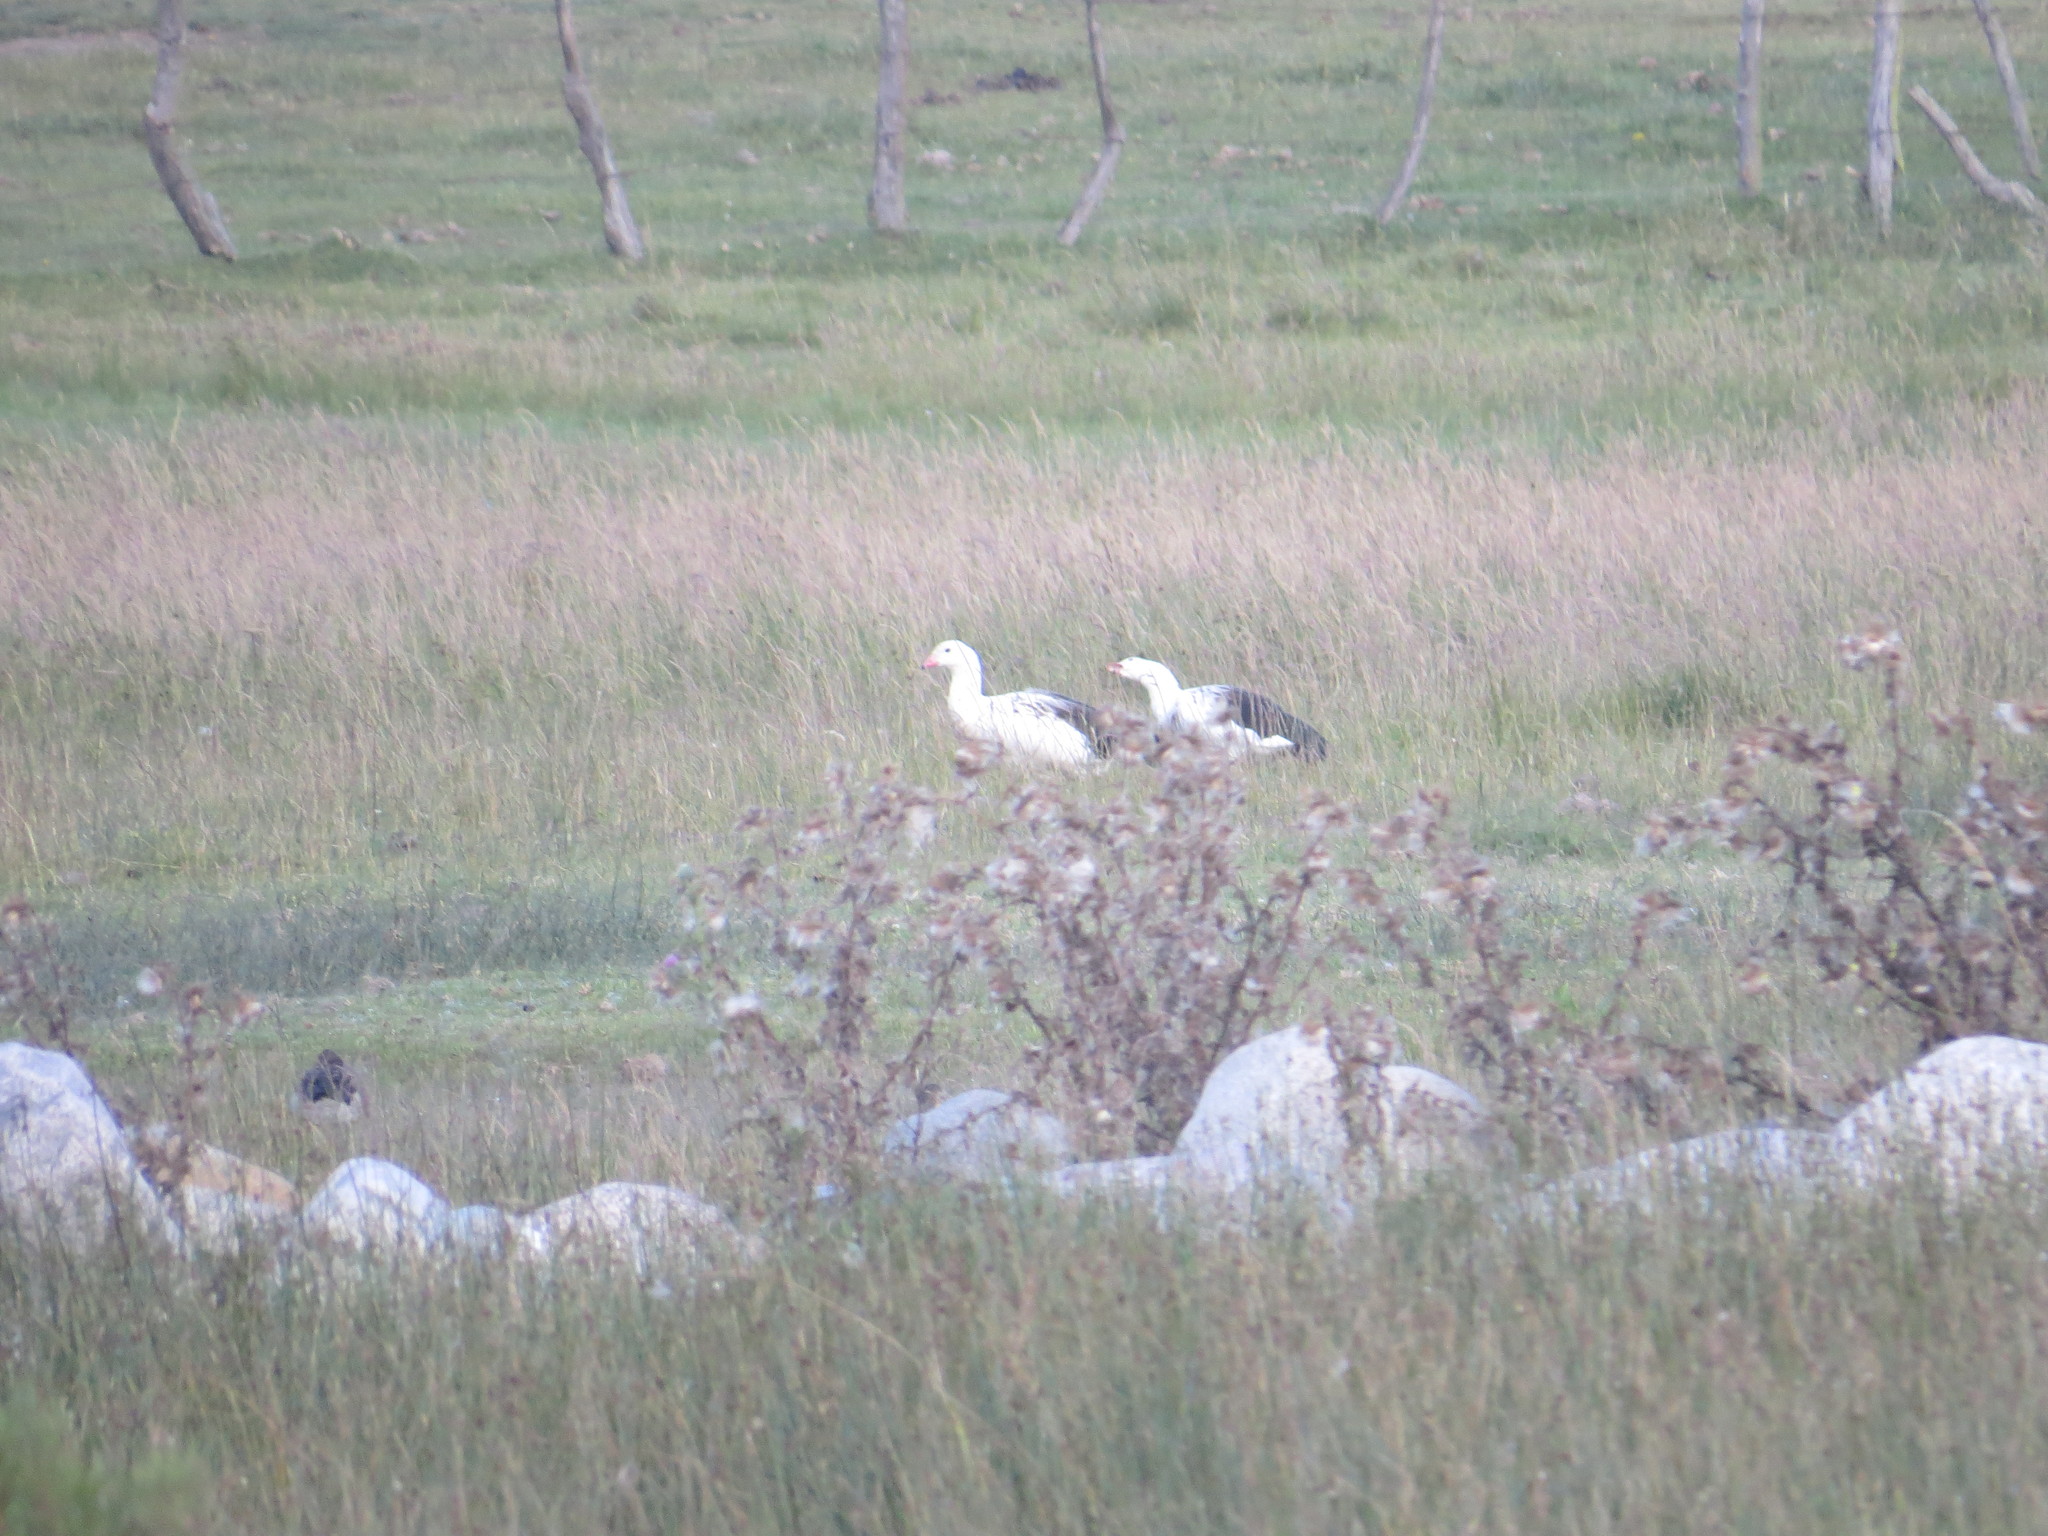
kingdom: Animalia
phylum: Chordata
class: Aves
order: Anseriformes
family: Anatidae
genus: Chloephaga
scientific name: Chloephaga melanoptera
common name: Andean goose
